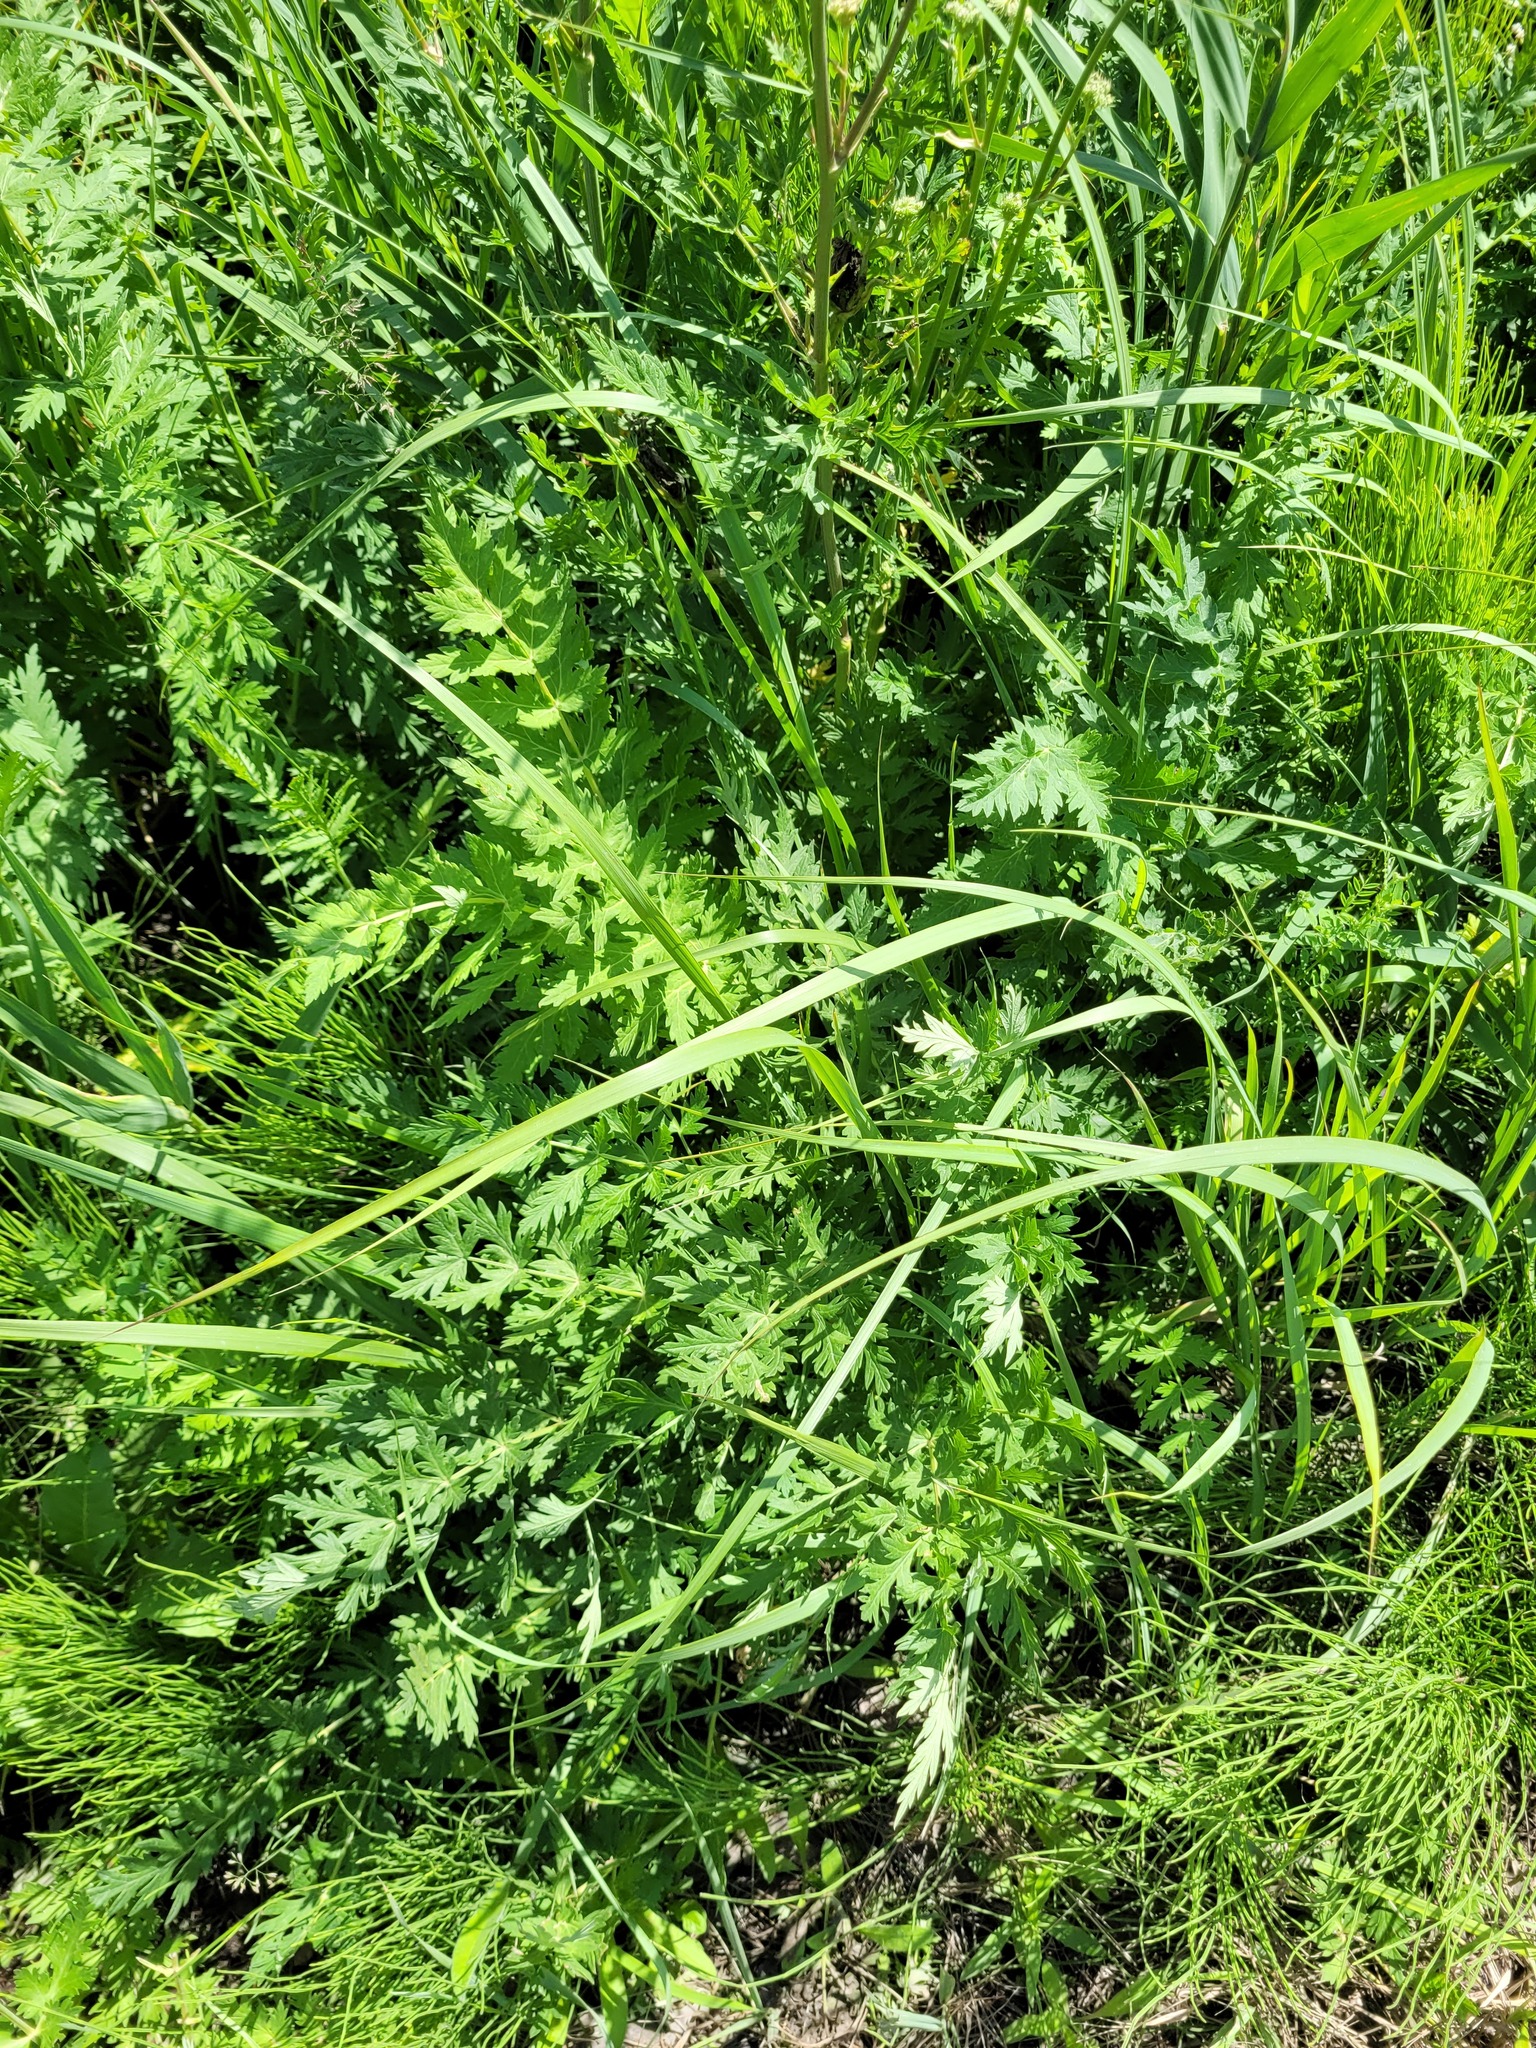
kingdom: Plantae
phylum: Tracheophyta
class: Magnoliopsida
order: Apiales
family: Apiaceae
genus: Seseli
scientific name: Seseli libanotis
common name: Mooncarrot
